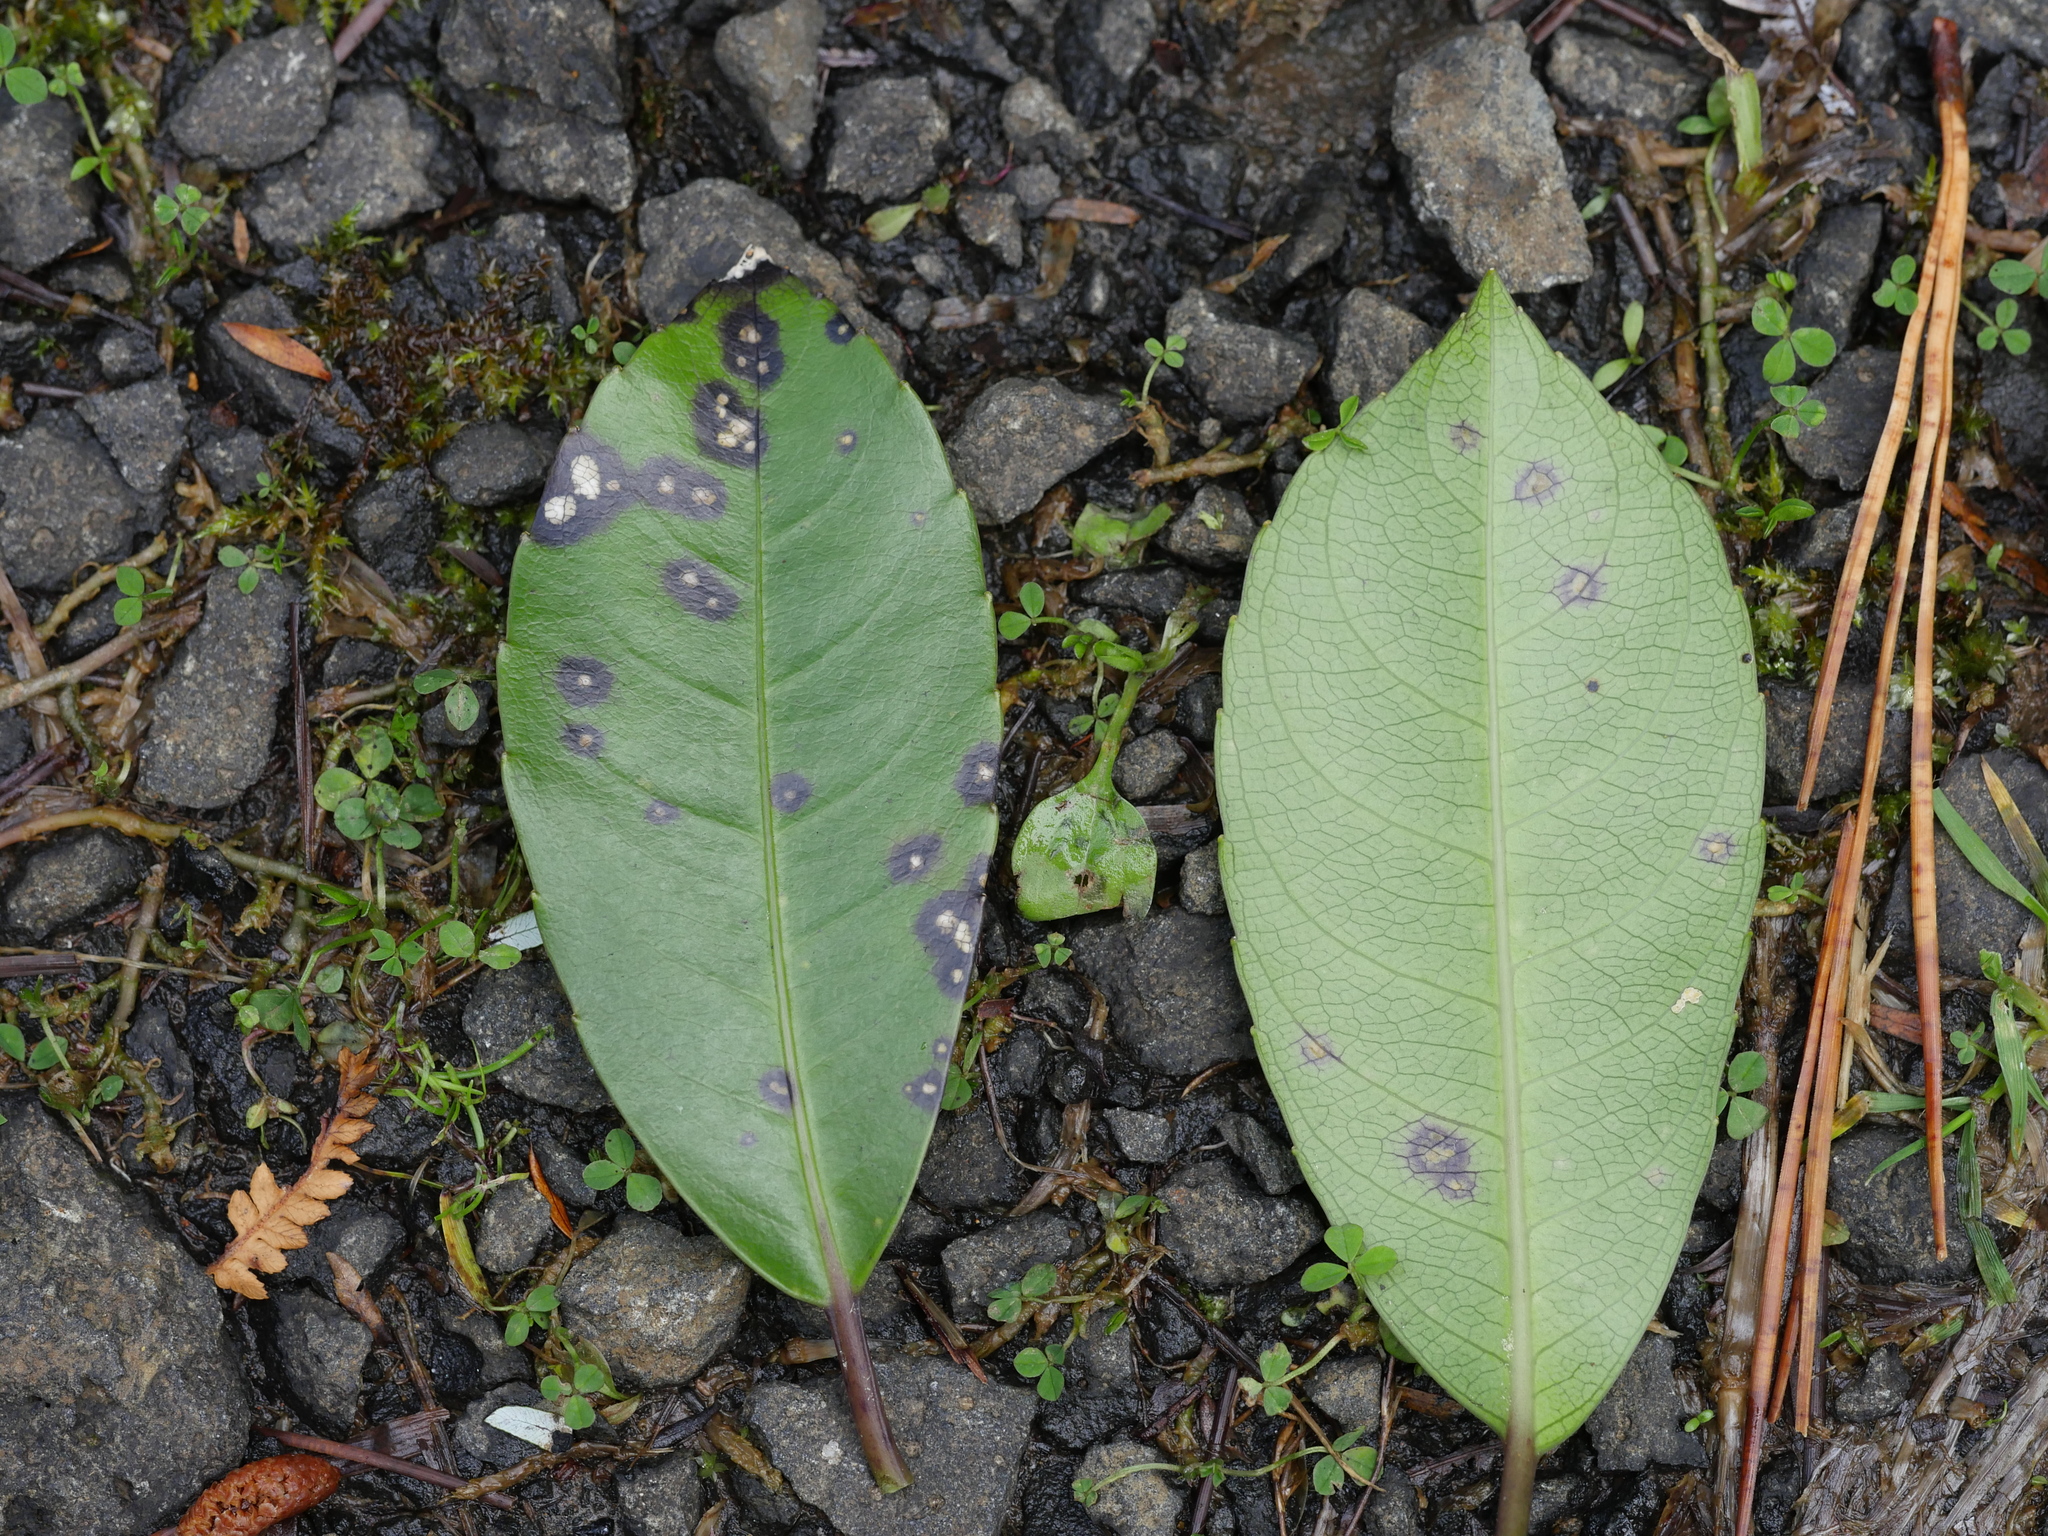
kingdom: Plantae
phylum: Tracheophyta
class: Magnoliopsida
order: Malpighiales
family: Violaceae
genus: Melicytus
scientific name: Melicytus macrophyllus
